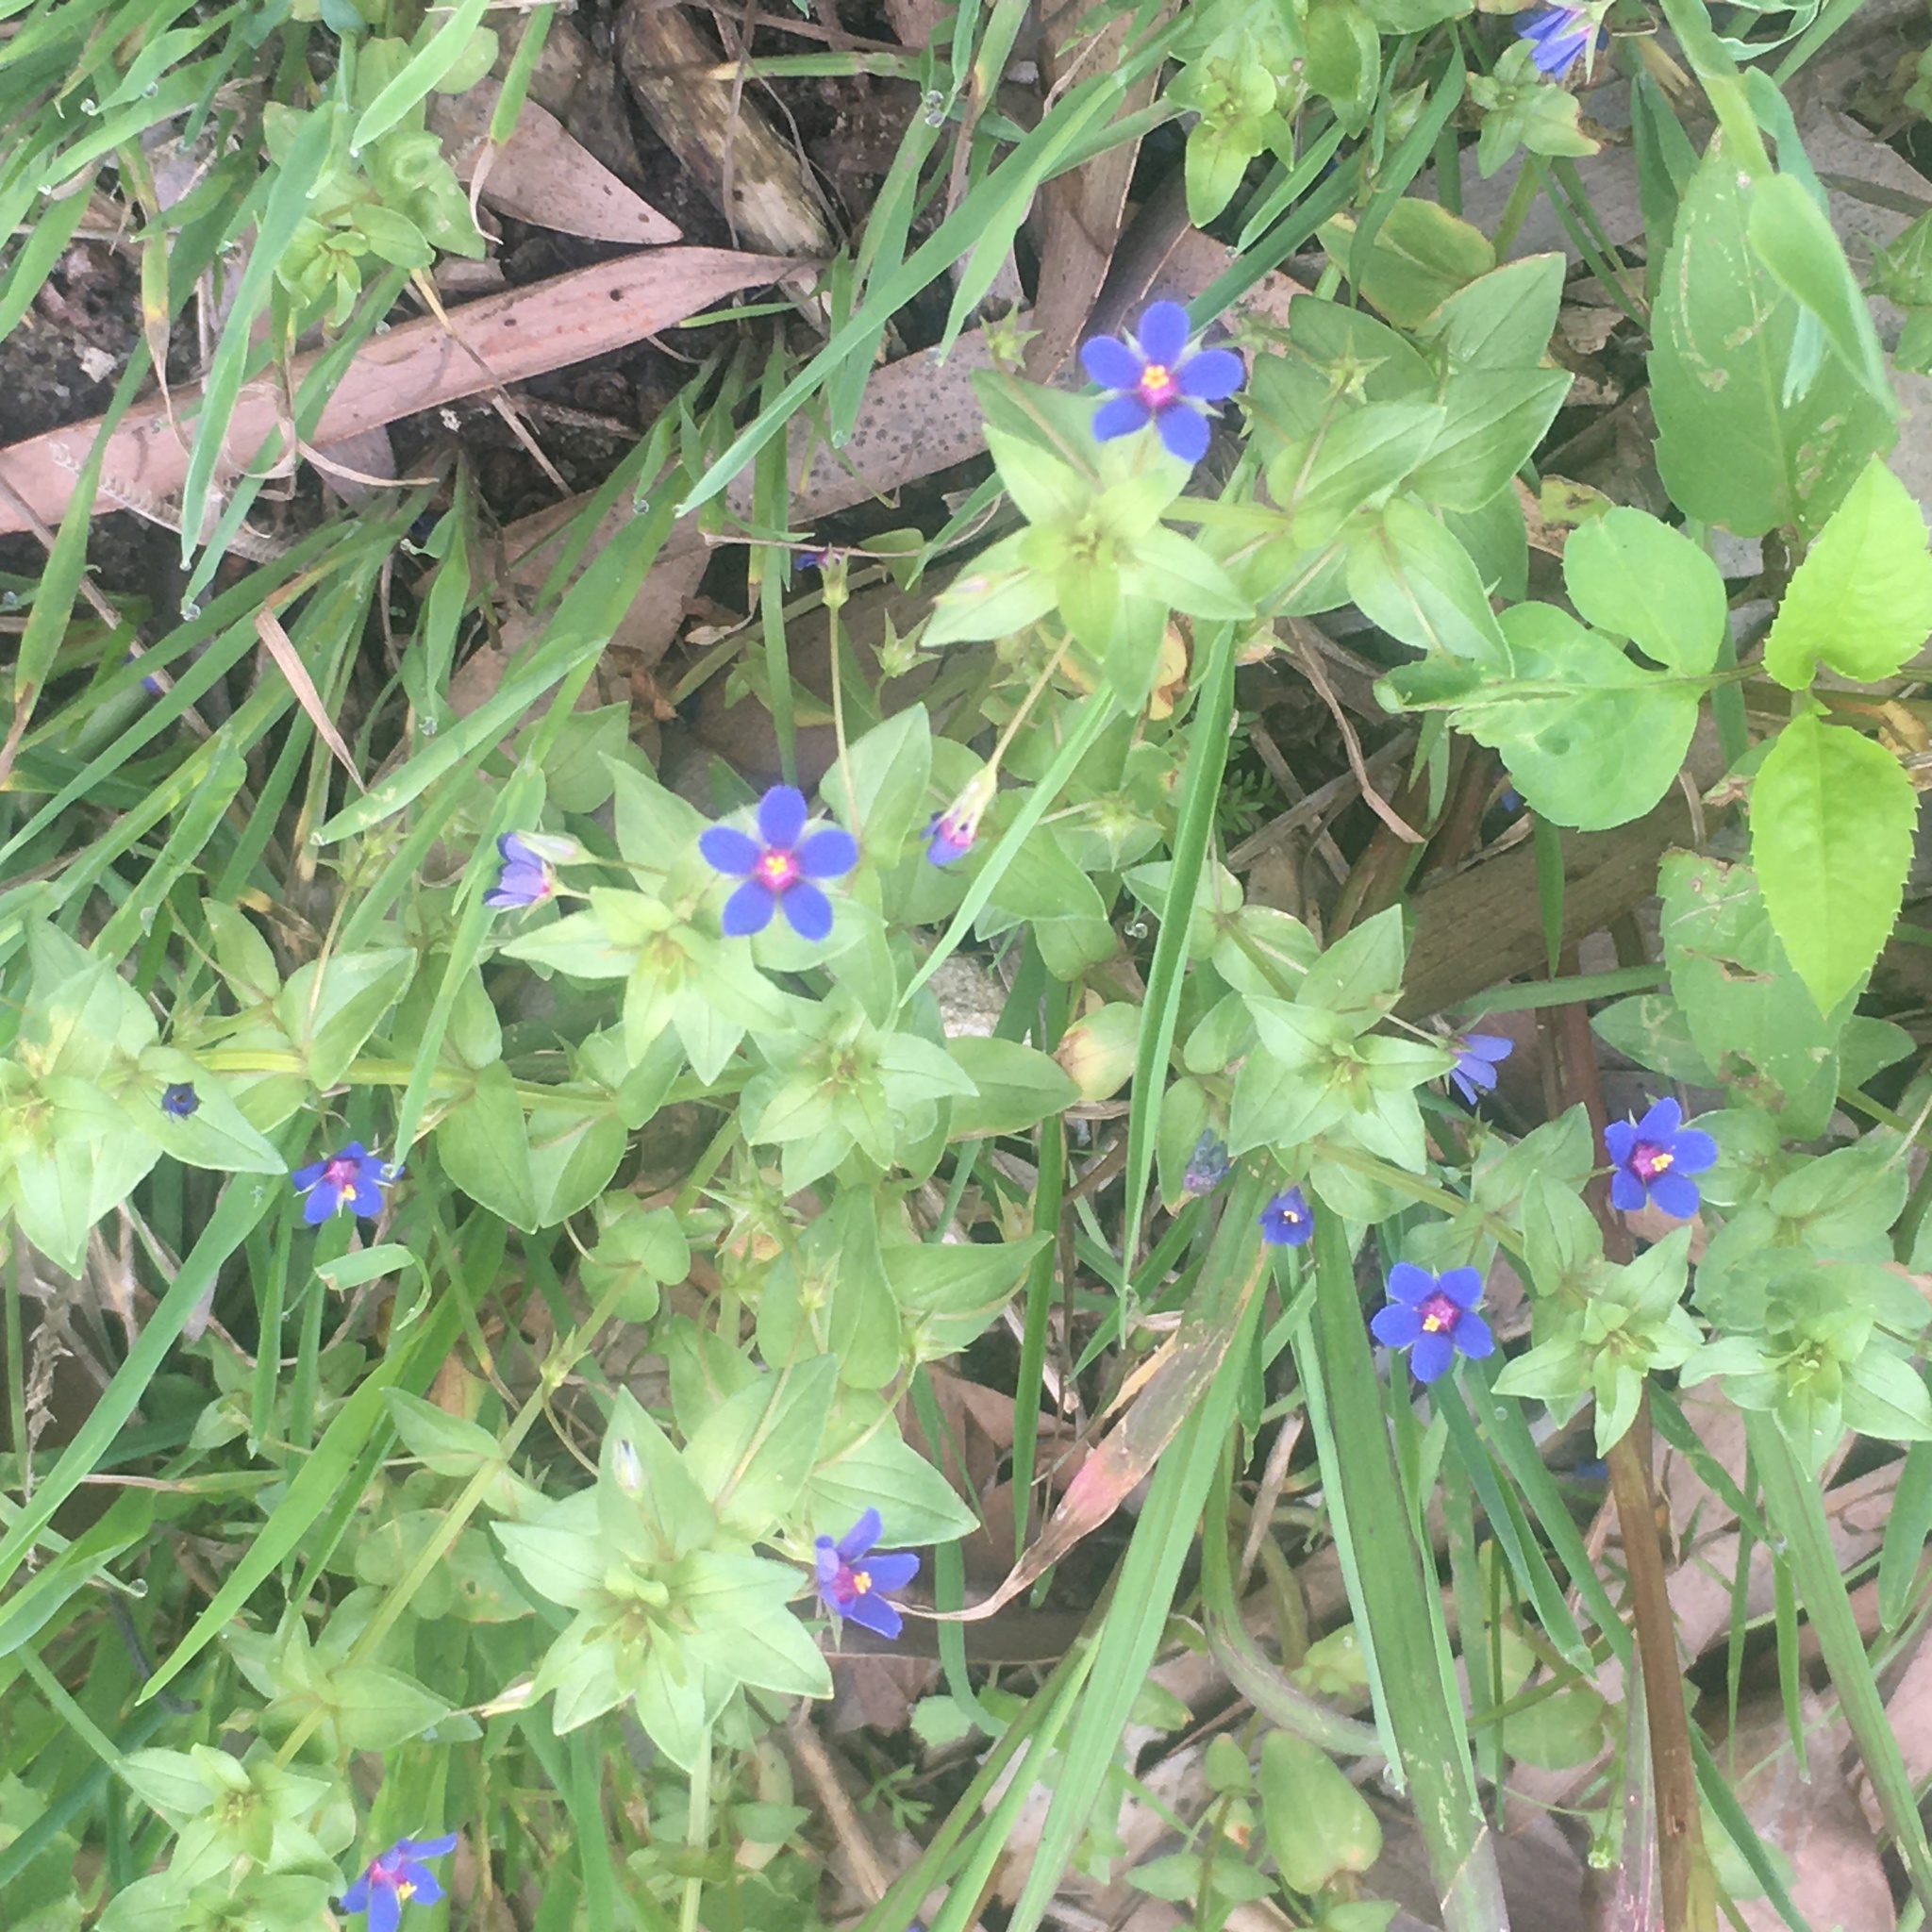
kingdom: Plantae
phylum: Tracheophyta
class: Magnoliopsida
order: Ericales
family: Primulaceae
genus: Lysimachia
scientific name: Lysimachia loeflingii
